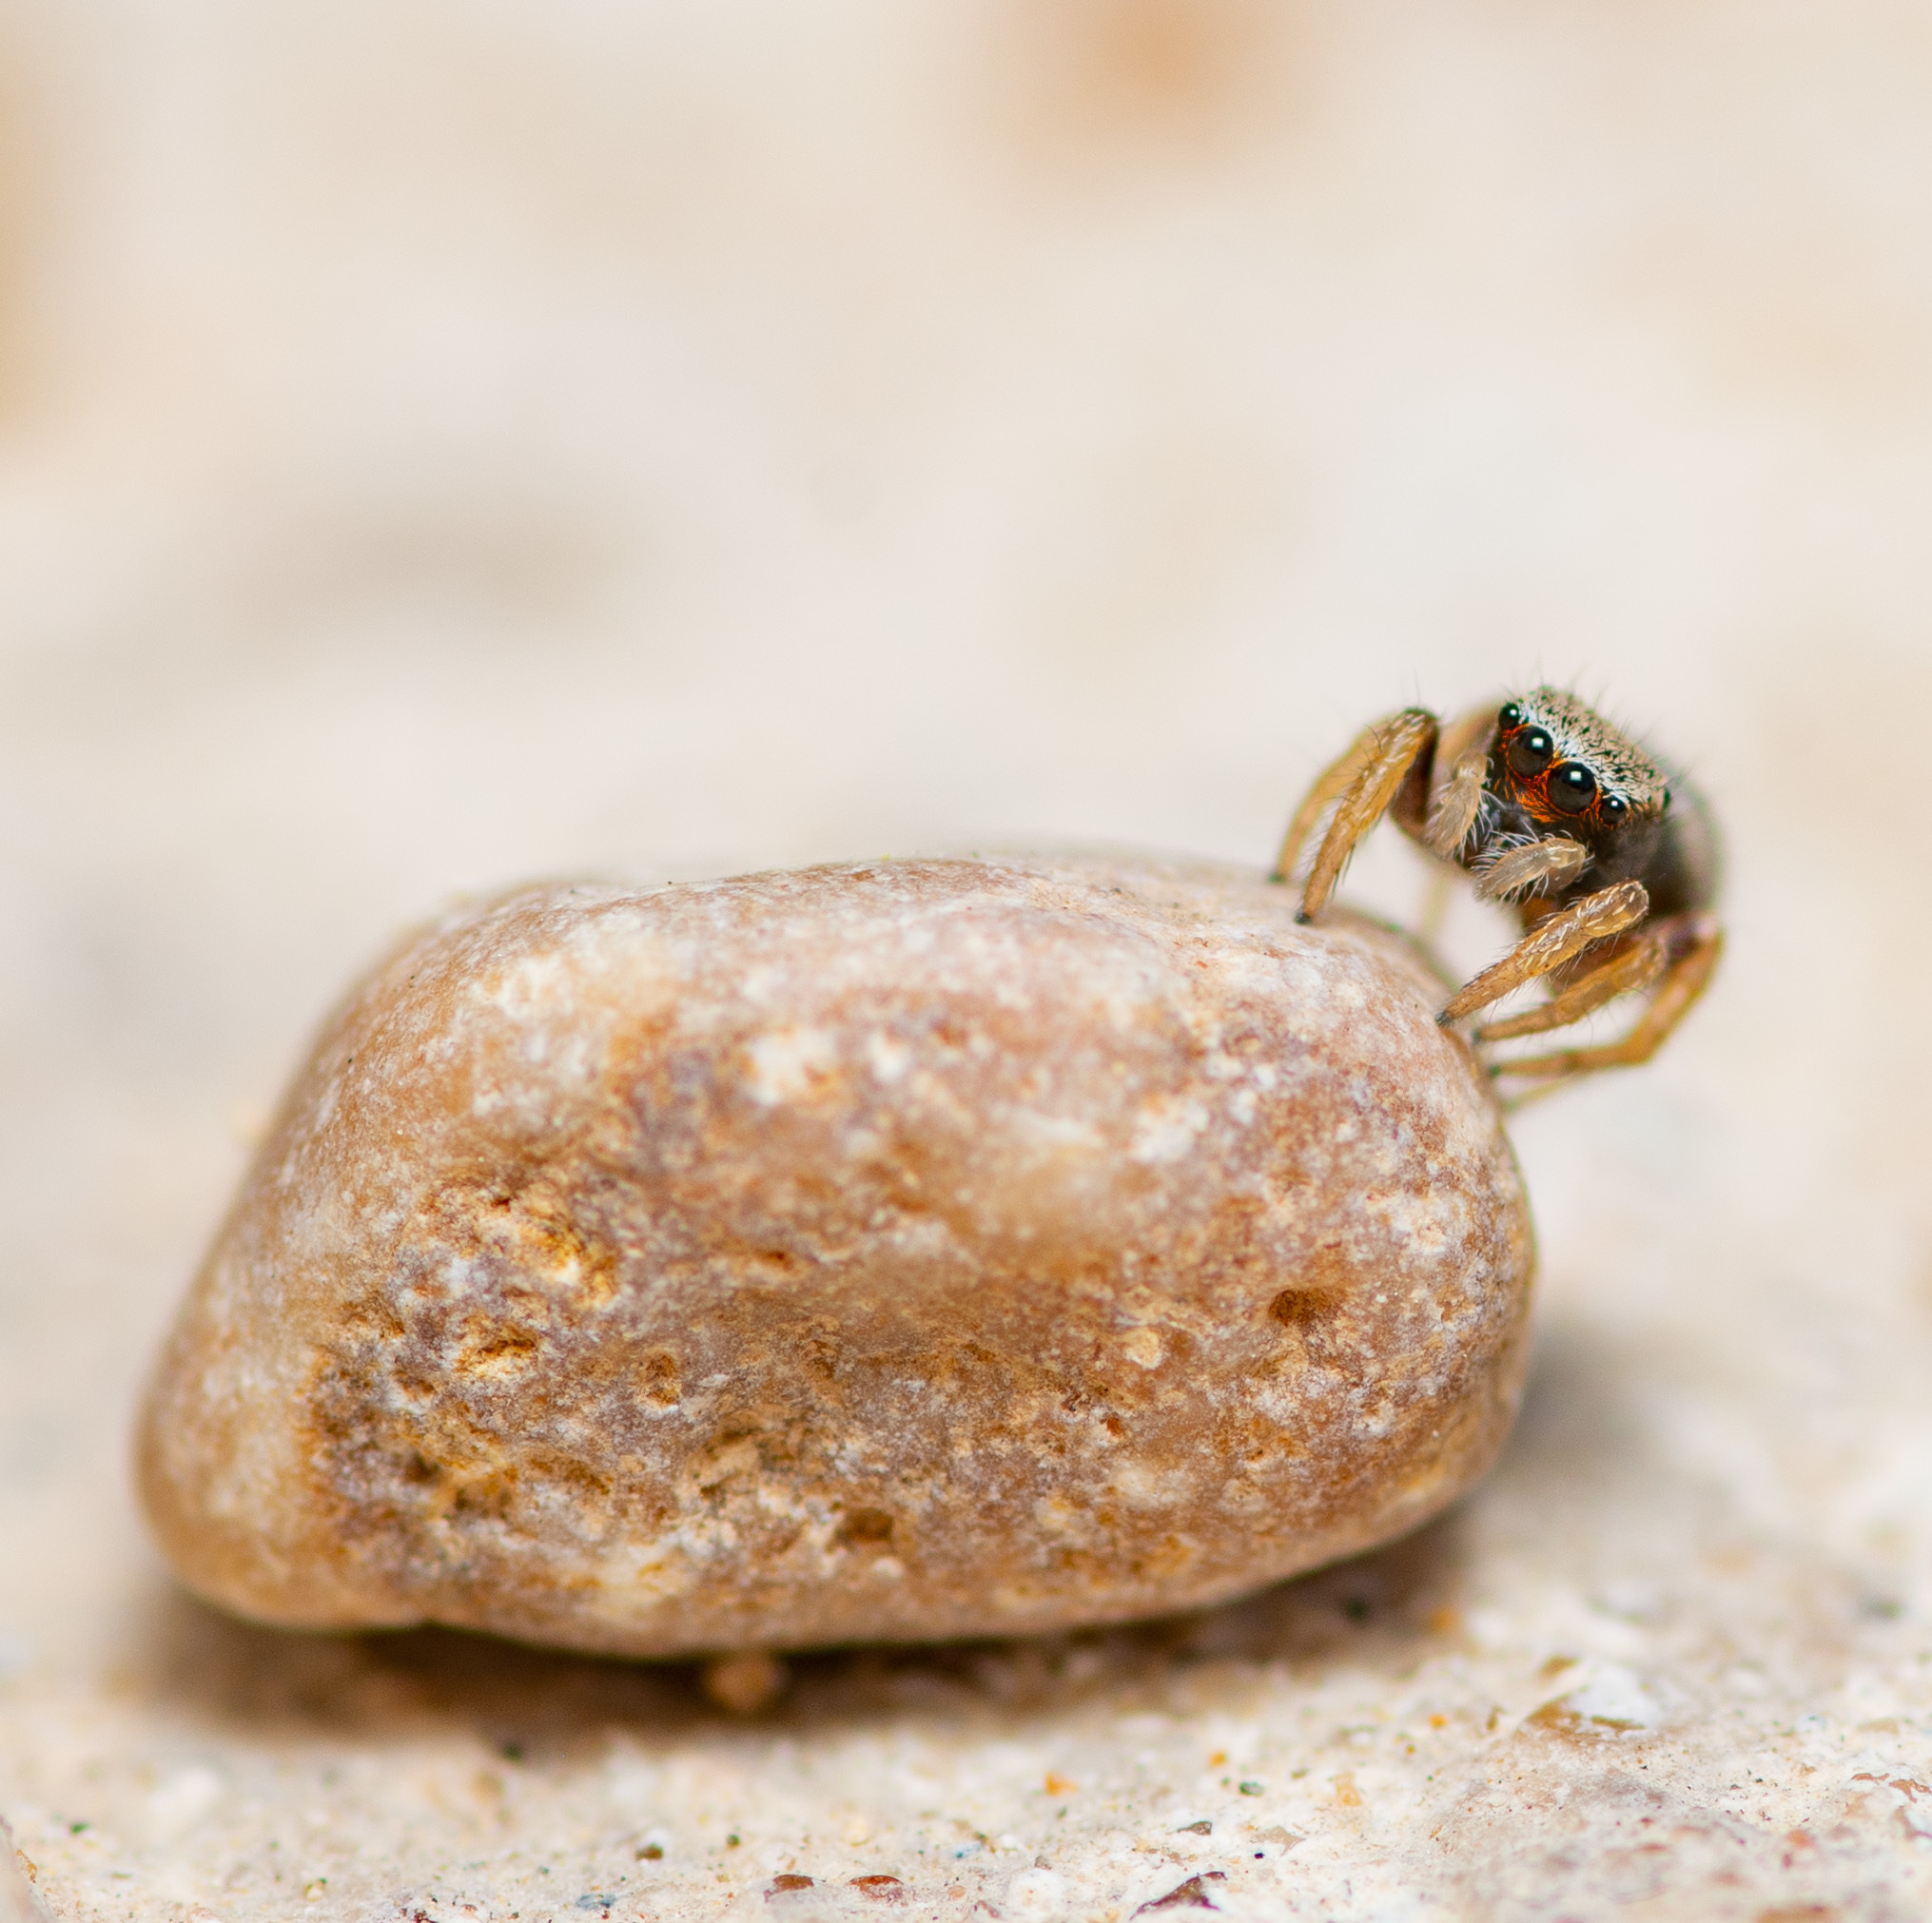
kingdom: Animalia
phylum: Arthropoda
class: Arachnida
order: Araneae
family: Salticidae
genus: Habronattus
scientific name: Habronattus coecatus
